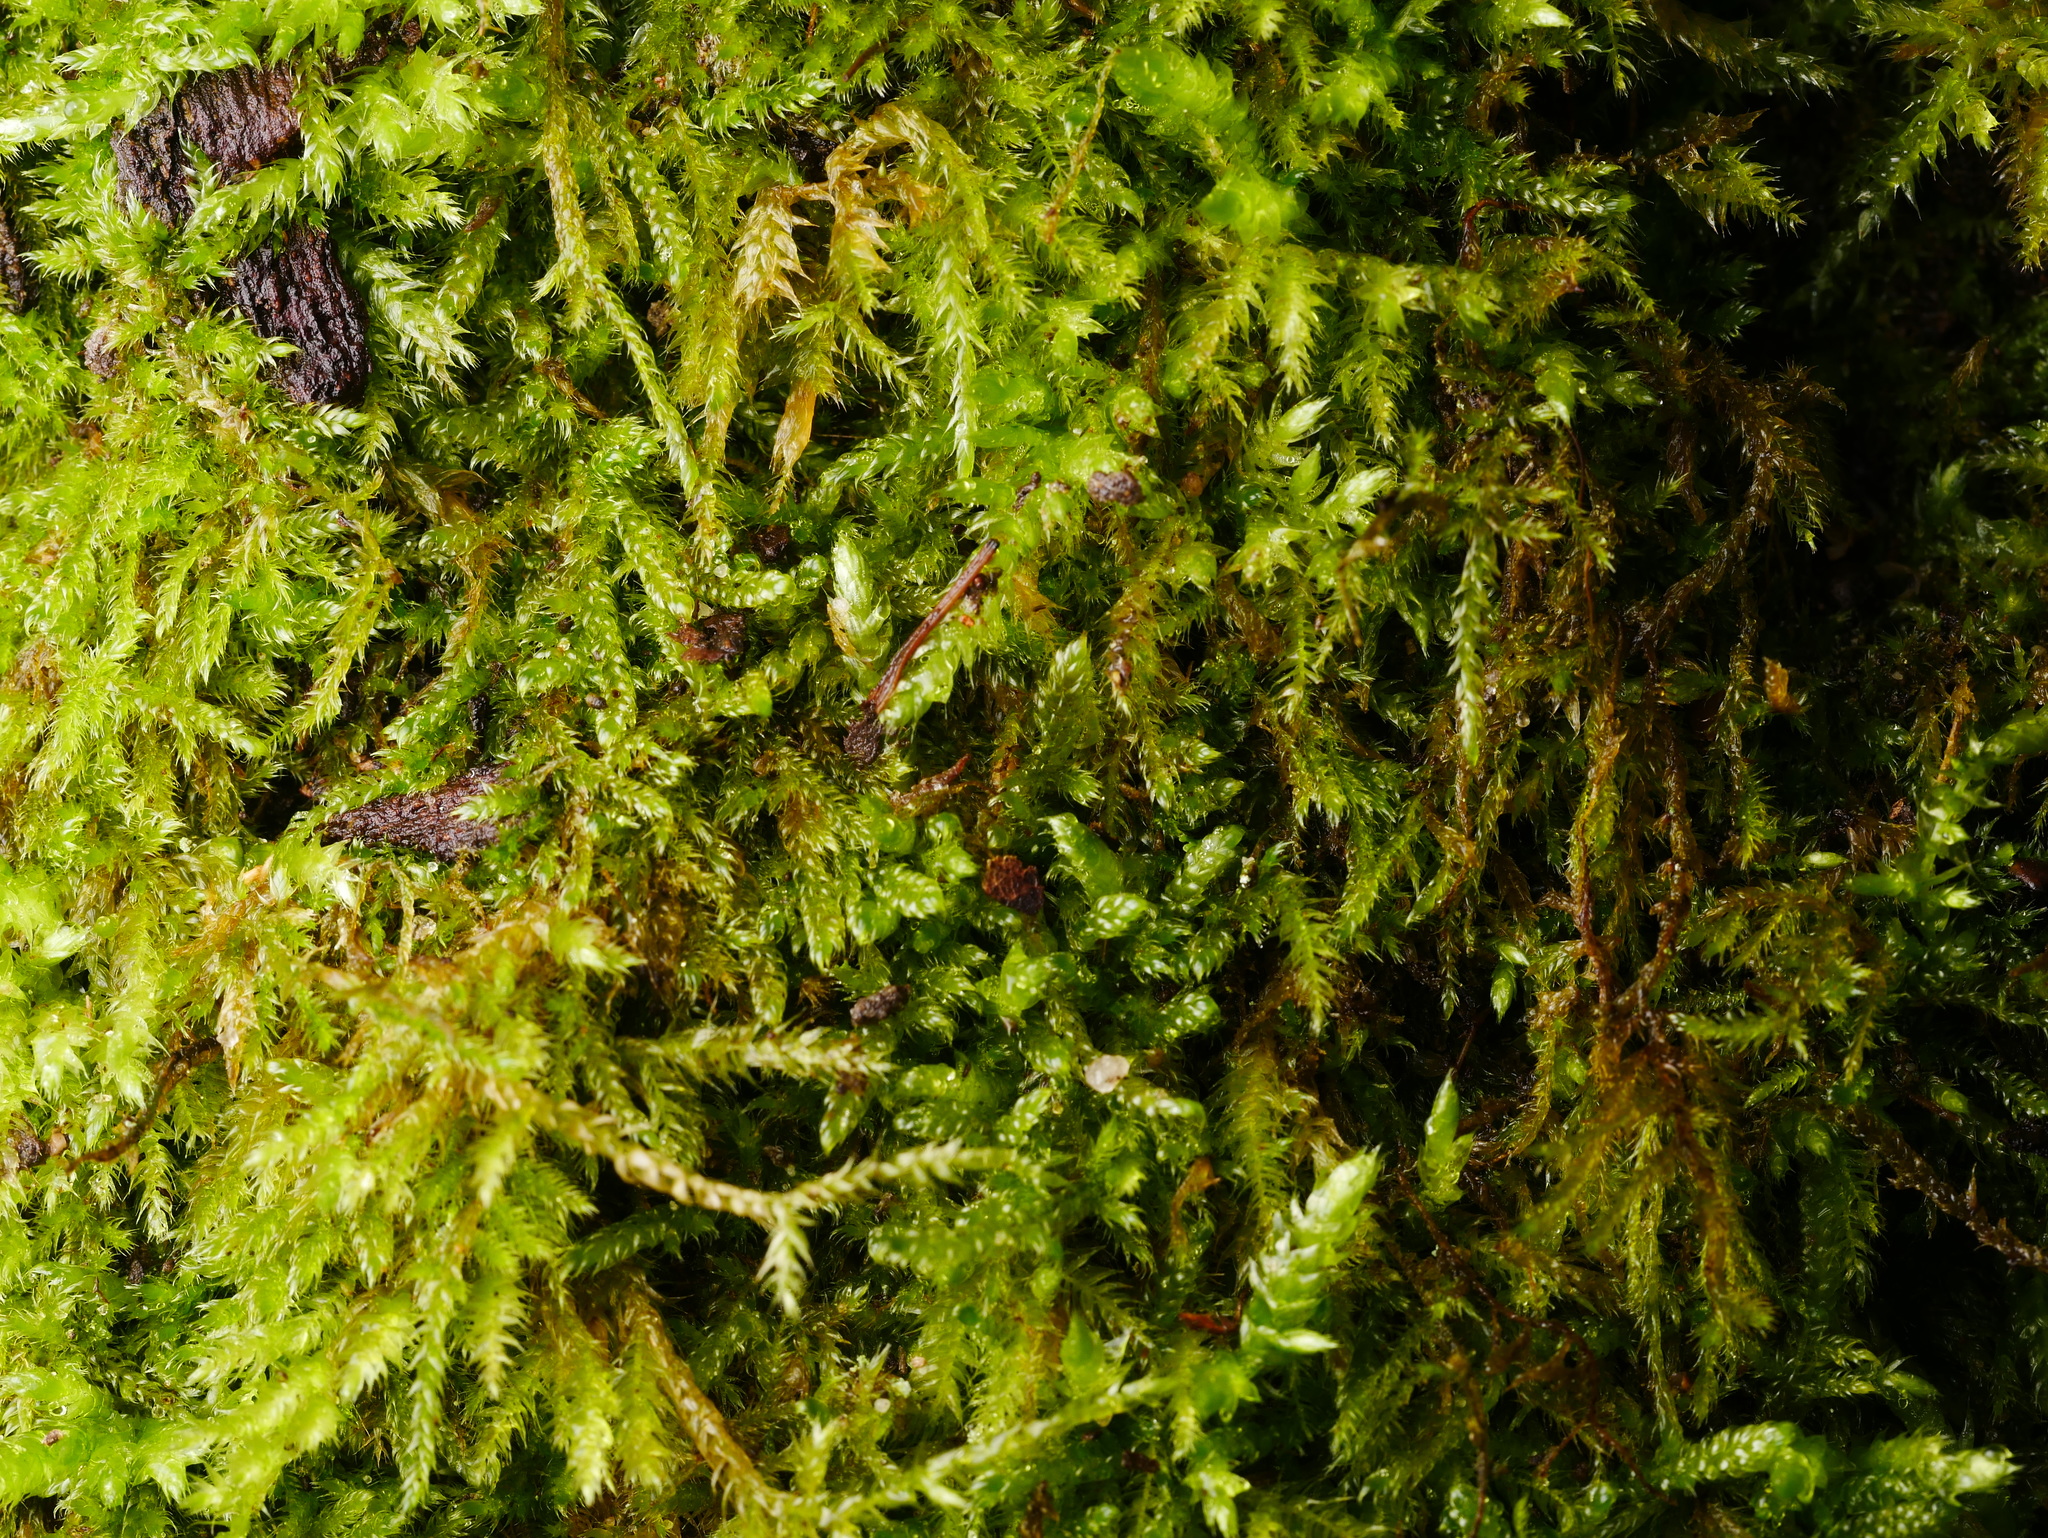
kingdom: Plantae
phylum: Bryophyta
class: Bryopsida
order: Hypnales
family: Hypnaceae
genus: Hypnum
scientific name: Hypnum cupressiforme
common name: Cypress-leaved plait-moss
